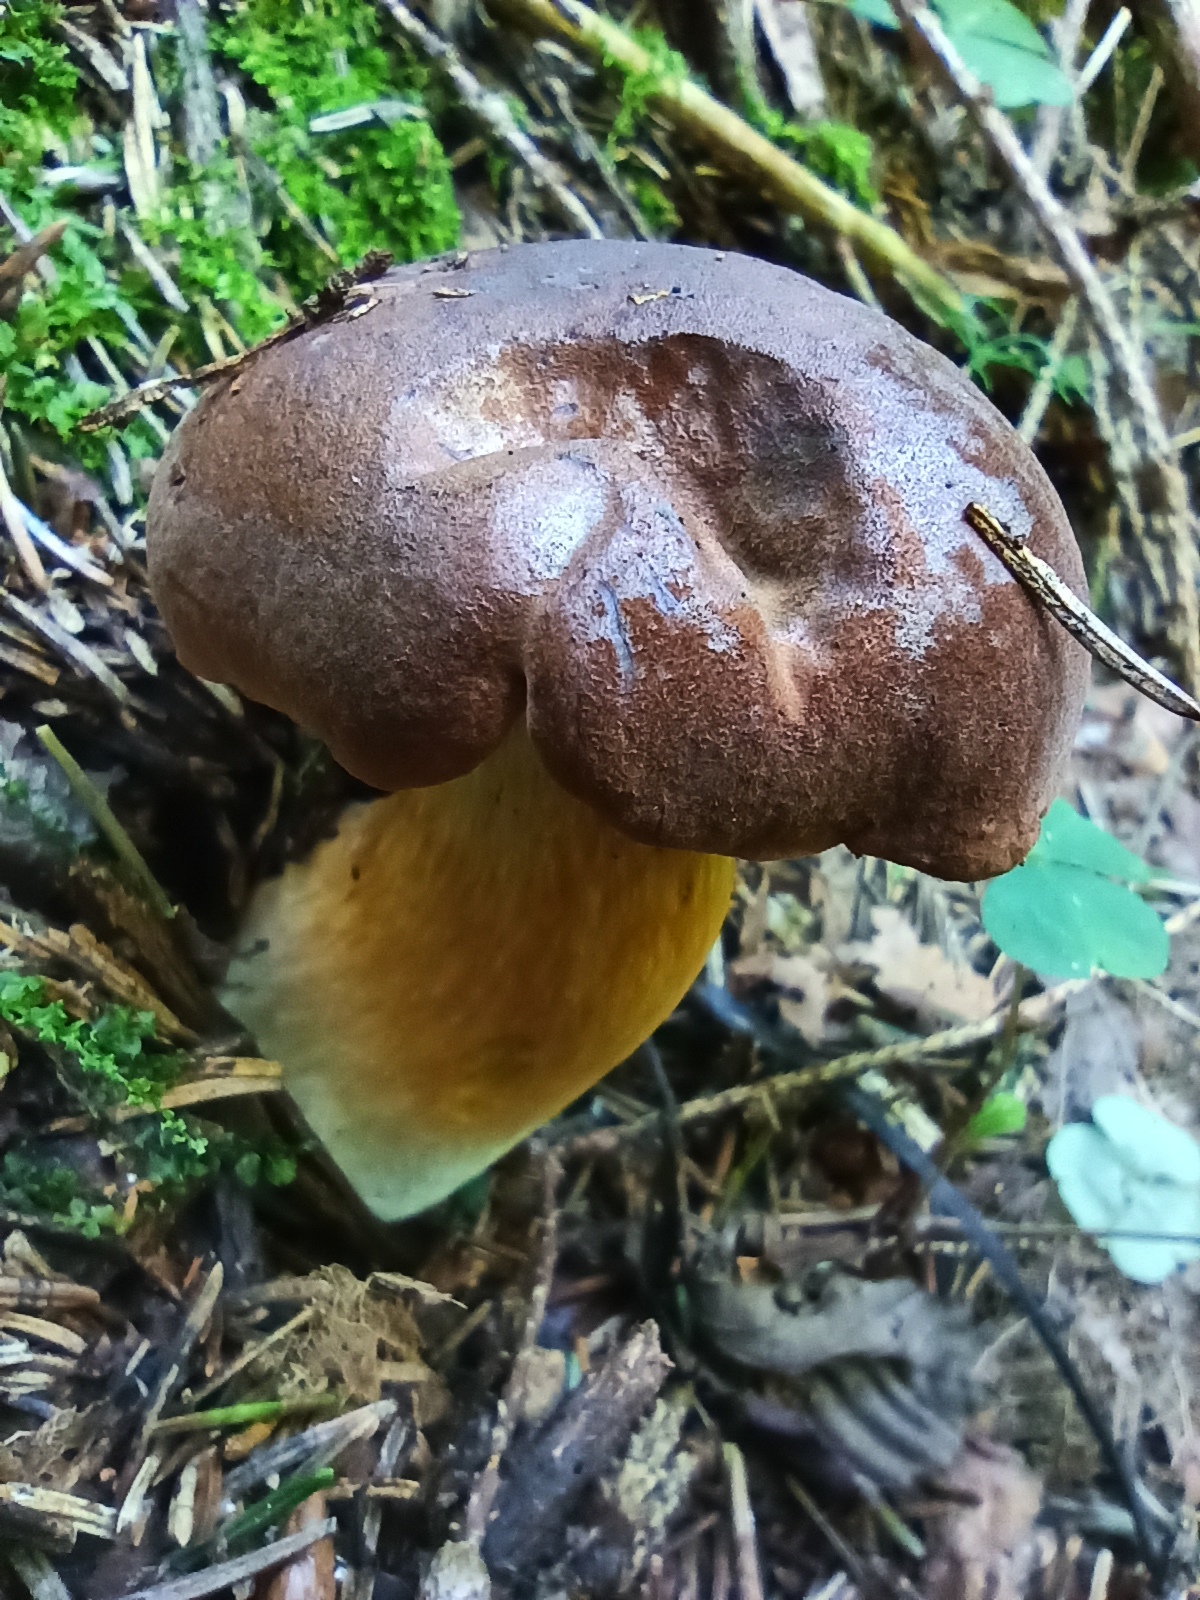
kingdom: Fungi
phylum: Basidiomycota
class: Agaricomycetes
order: Boletales
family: Boletaceae
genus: Imleria
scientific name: Imleria badia
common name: Bay bolete
